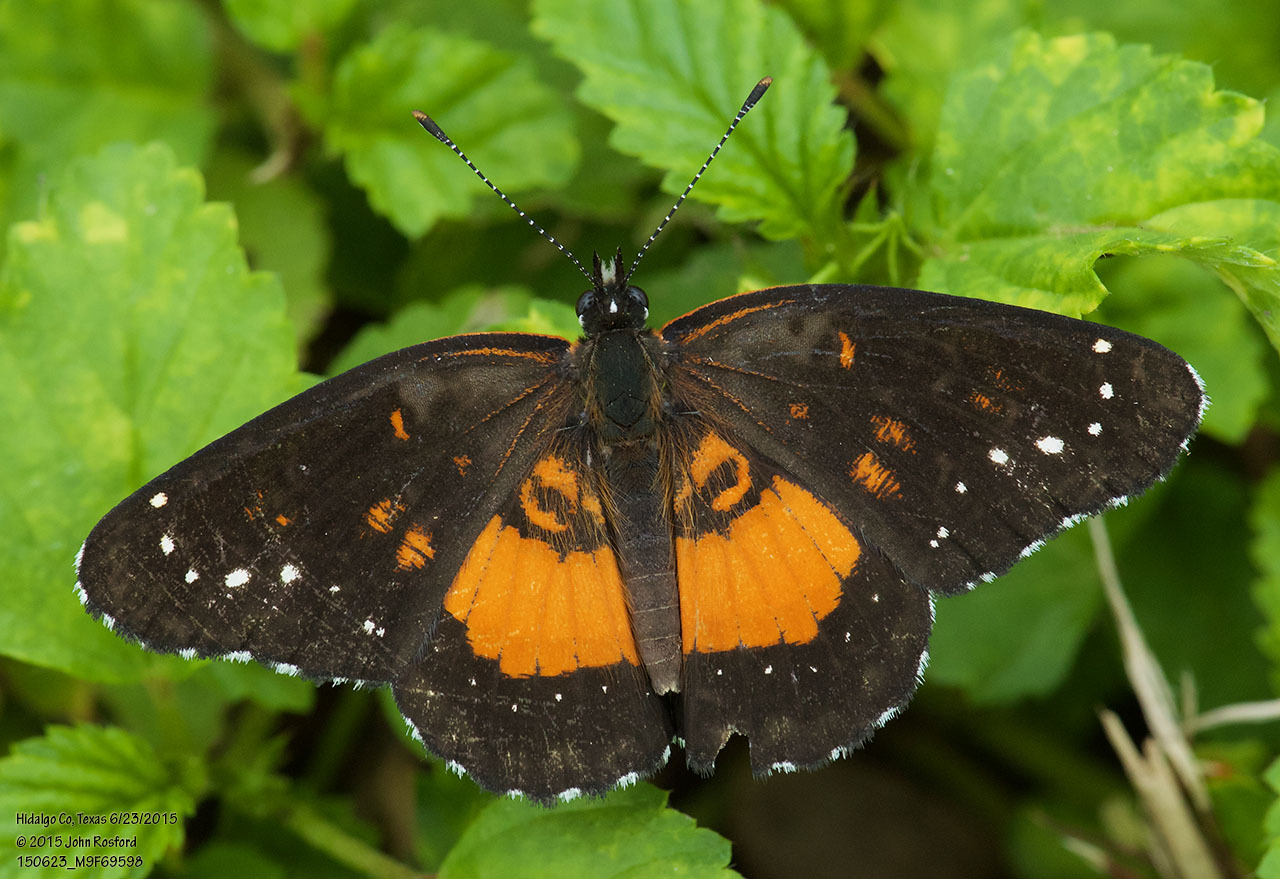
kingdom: Animalia
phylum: Arthropoda
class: Insecta
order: Lepidoptera
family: Nymphalidae
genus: Chlosyne
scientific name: Chlosyne lacinia
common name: Bordered patch
